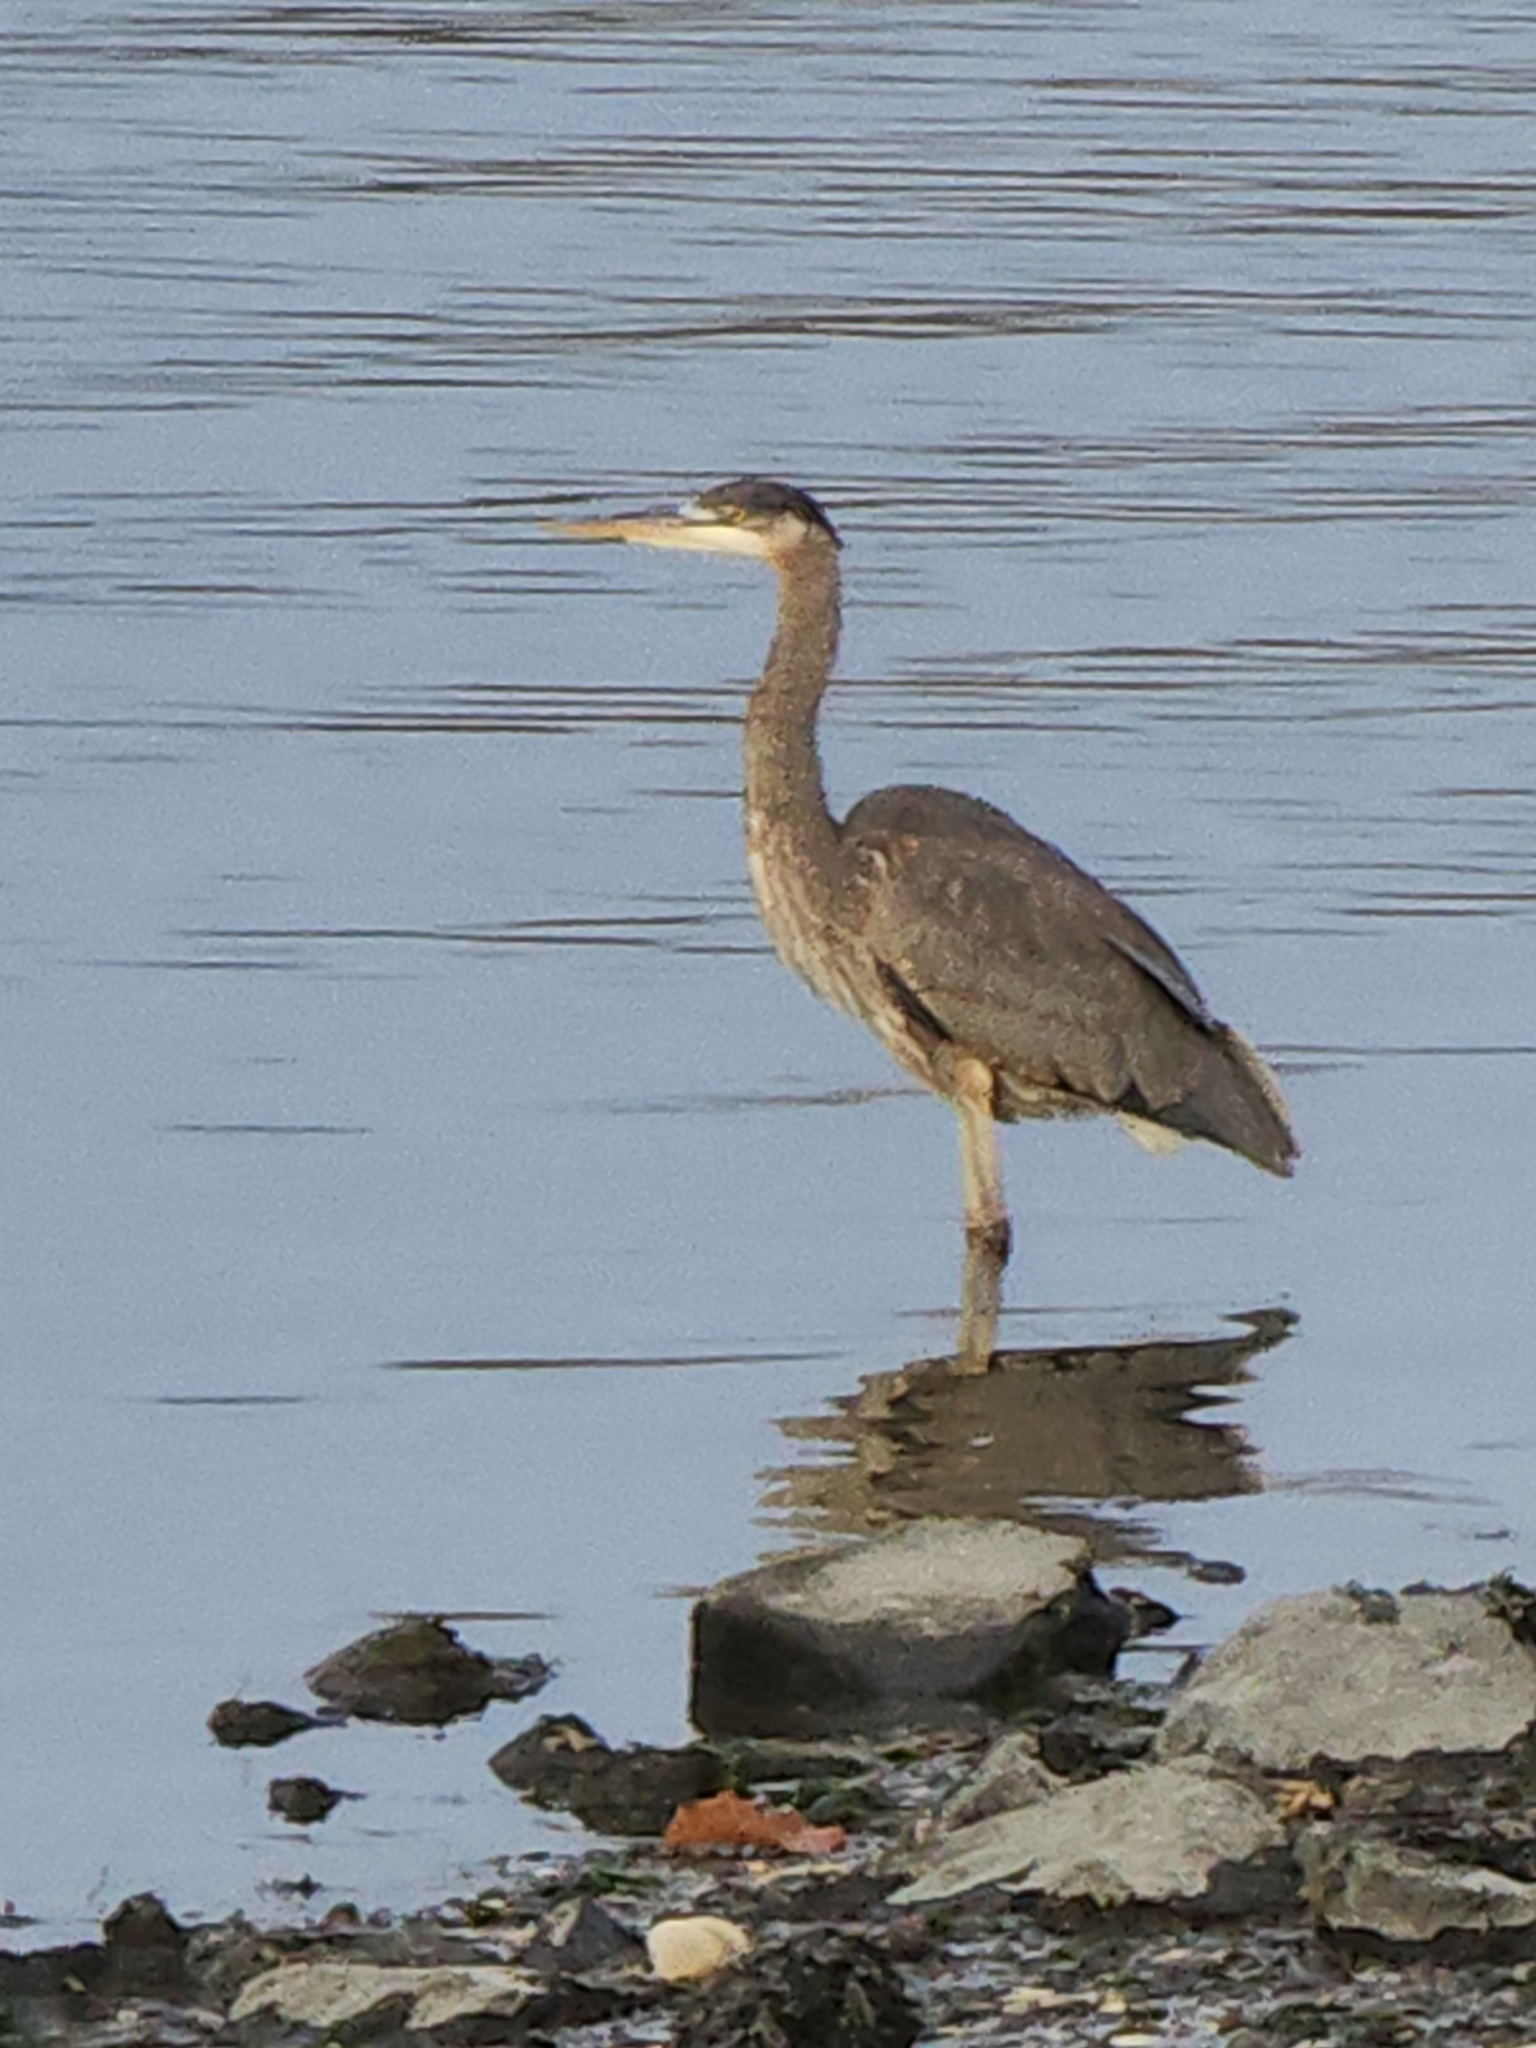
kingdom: Animalia
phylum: Chordata
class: Aves
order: Pelecaniformes
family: Ardeidae
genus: Ardea
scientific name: Ardea herodias
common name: Great blue heron
